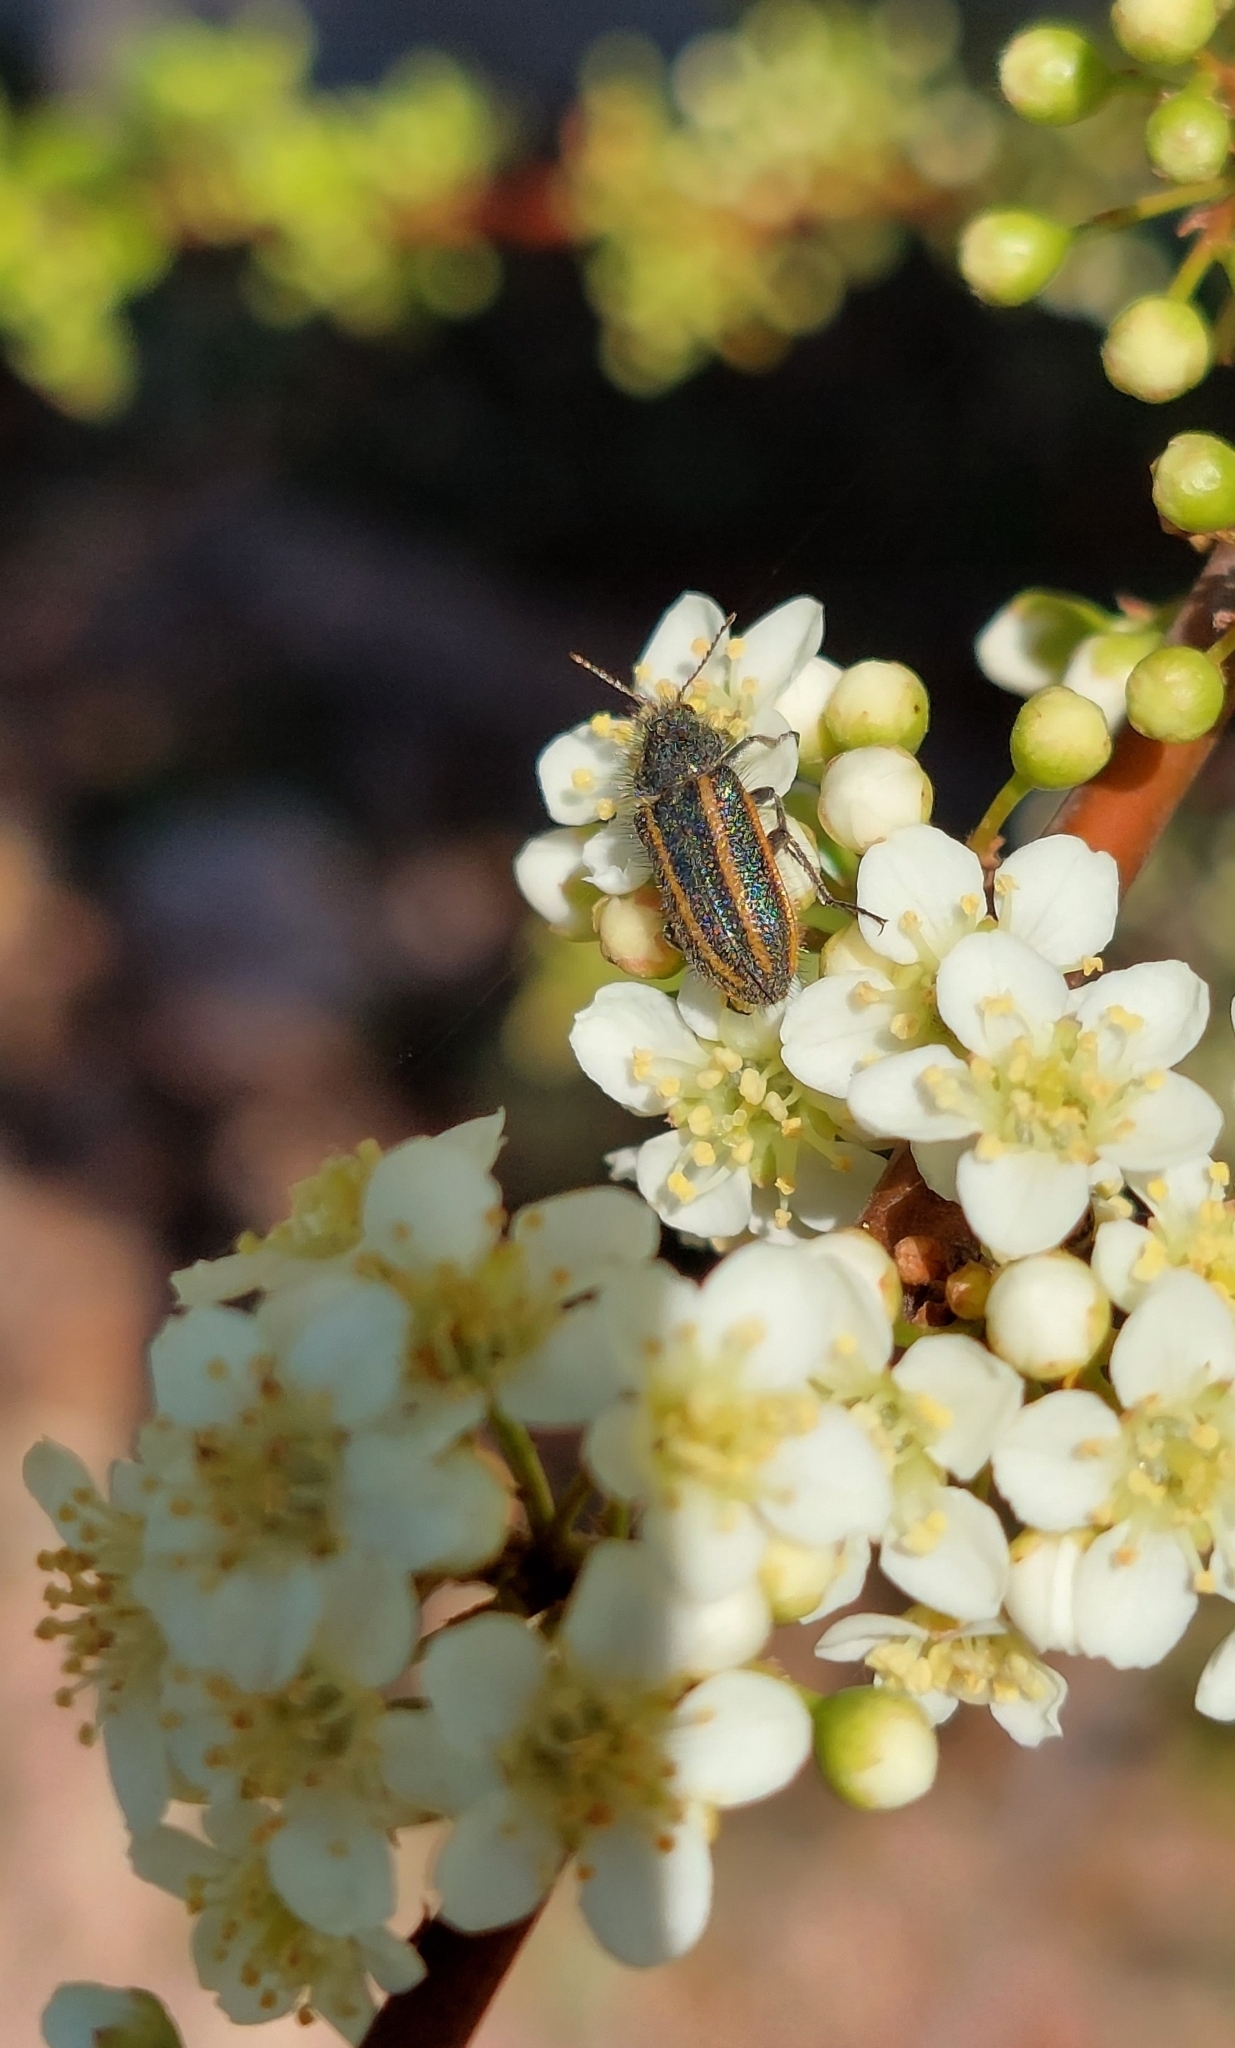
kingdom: Animalia
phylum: Arthropoda
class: Insecta
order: Coleoptera
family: Melyridae
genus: Astylus
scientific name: Astylus
